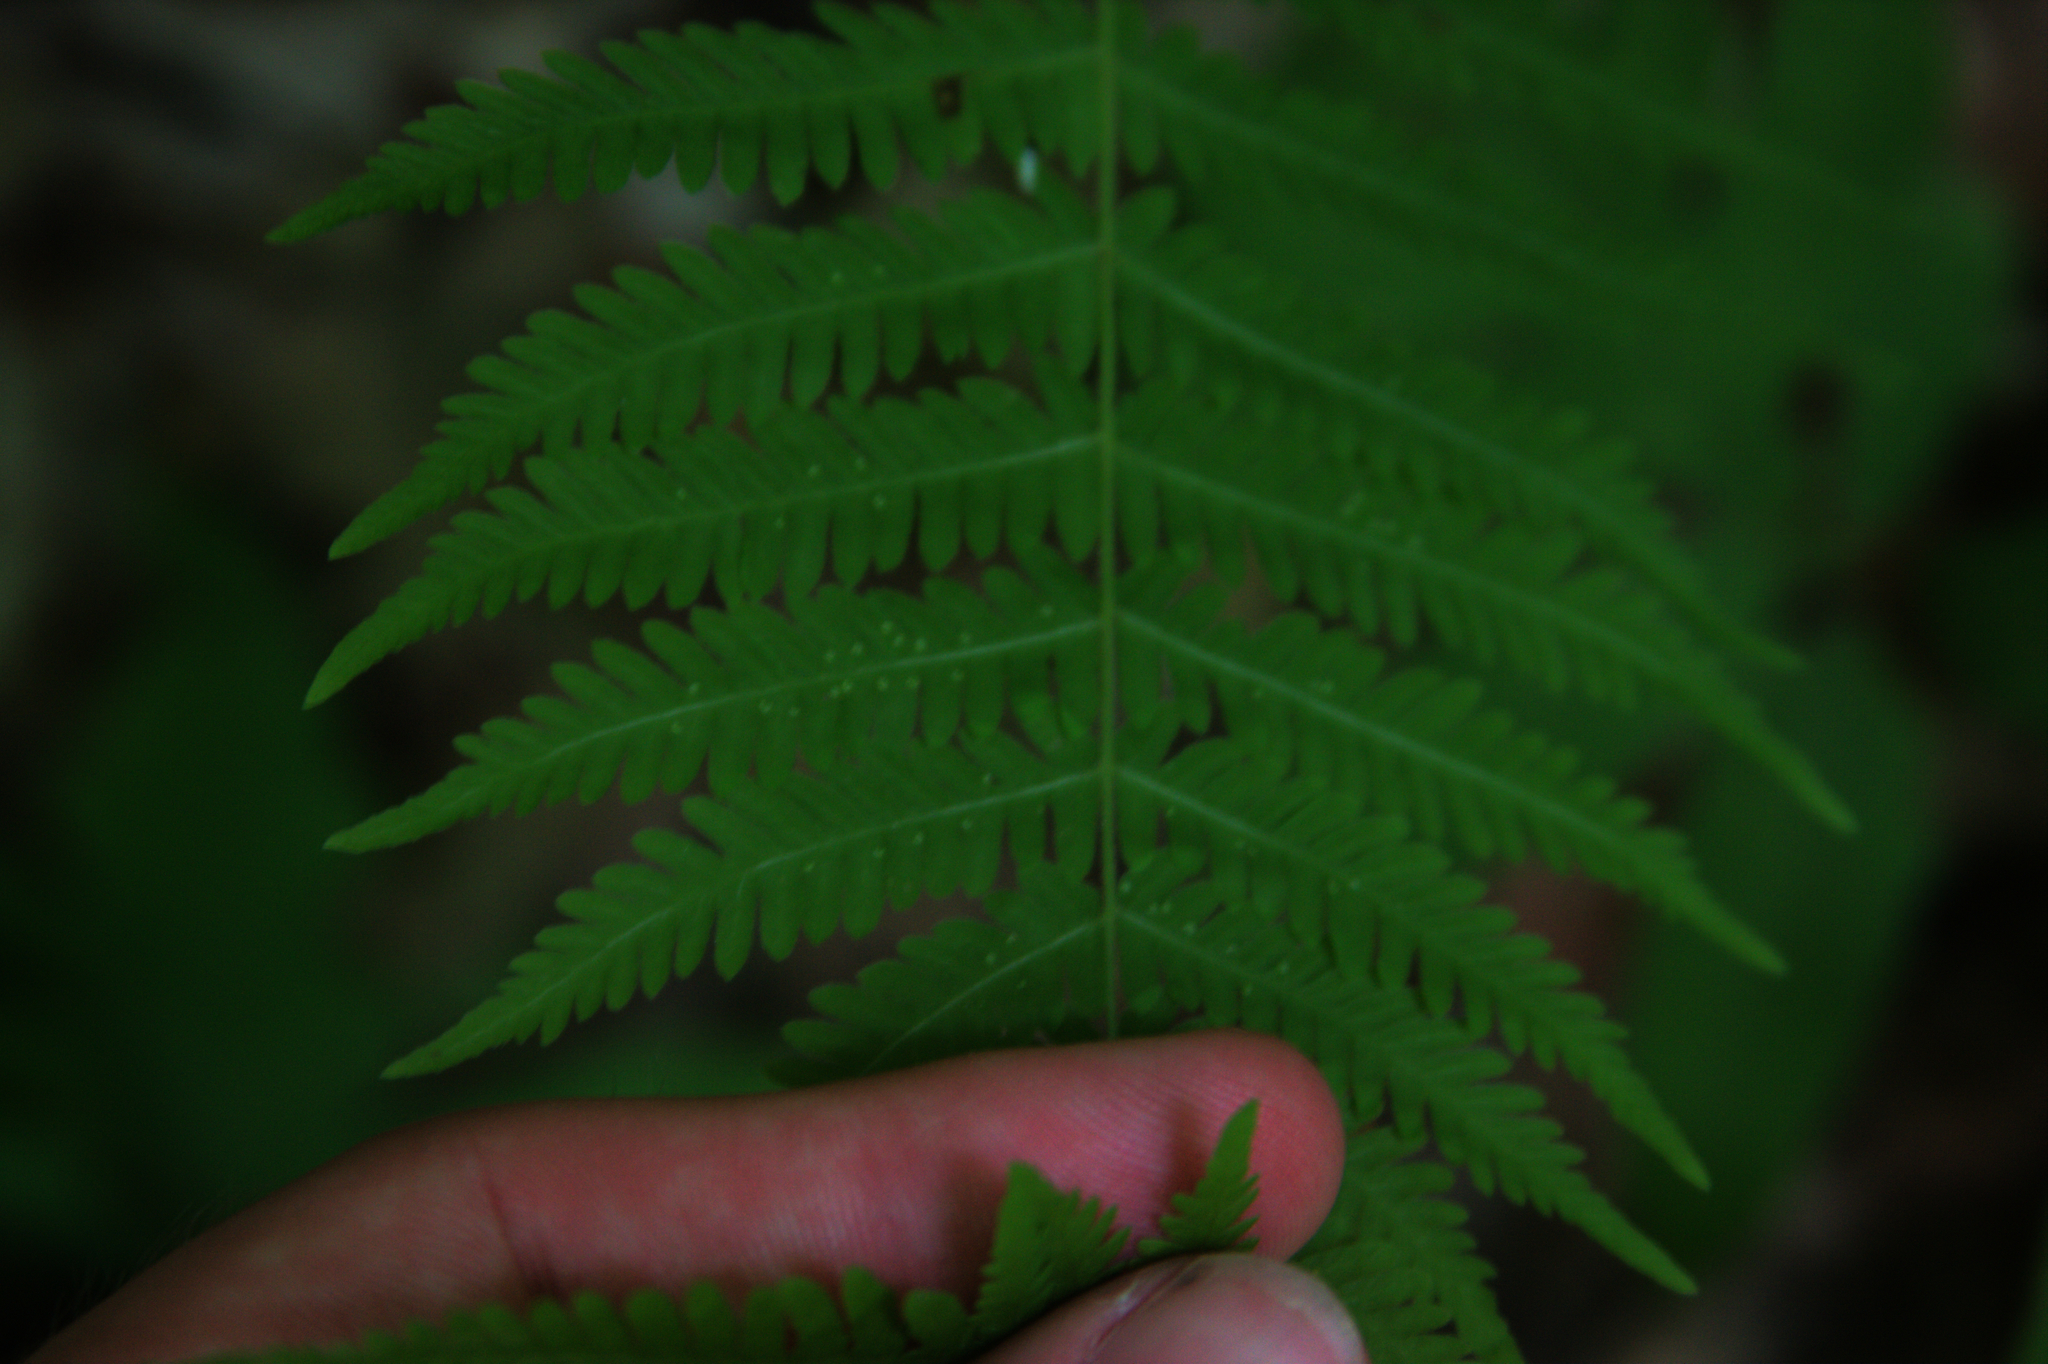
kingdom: Plantae
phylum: Tracheophyta
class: Polypodiopsida
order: Polypodiales
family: Thelypteridaceae
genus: Amauropelta
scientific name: Amauropelta noveboracensis
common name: New york fern
